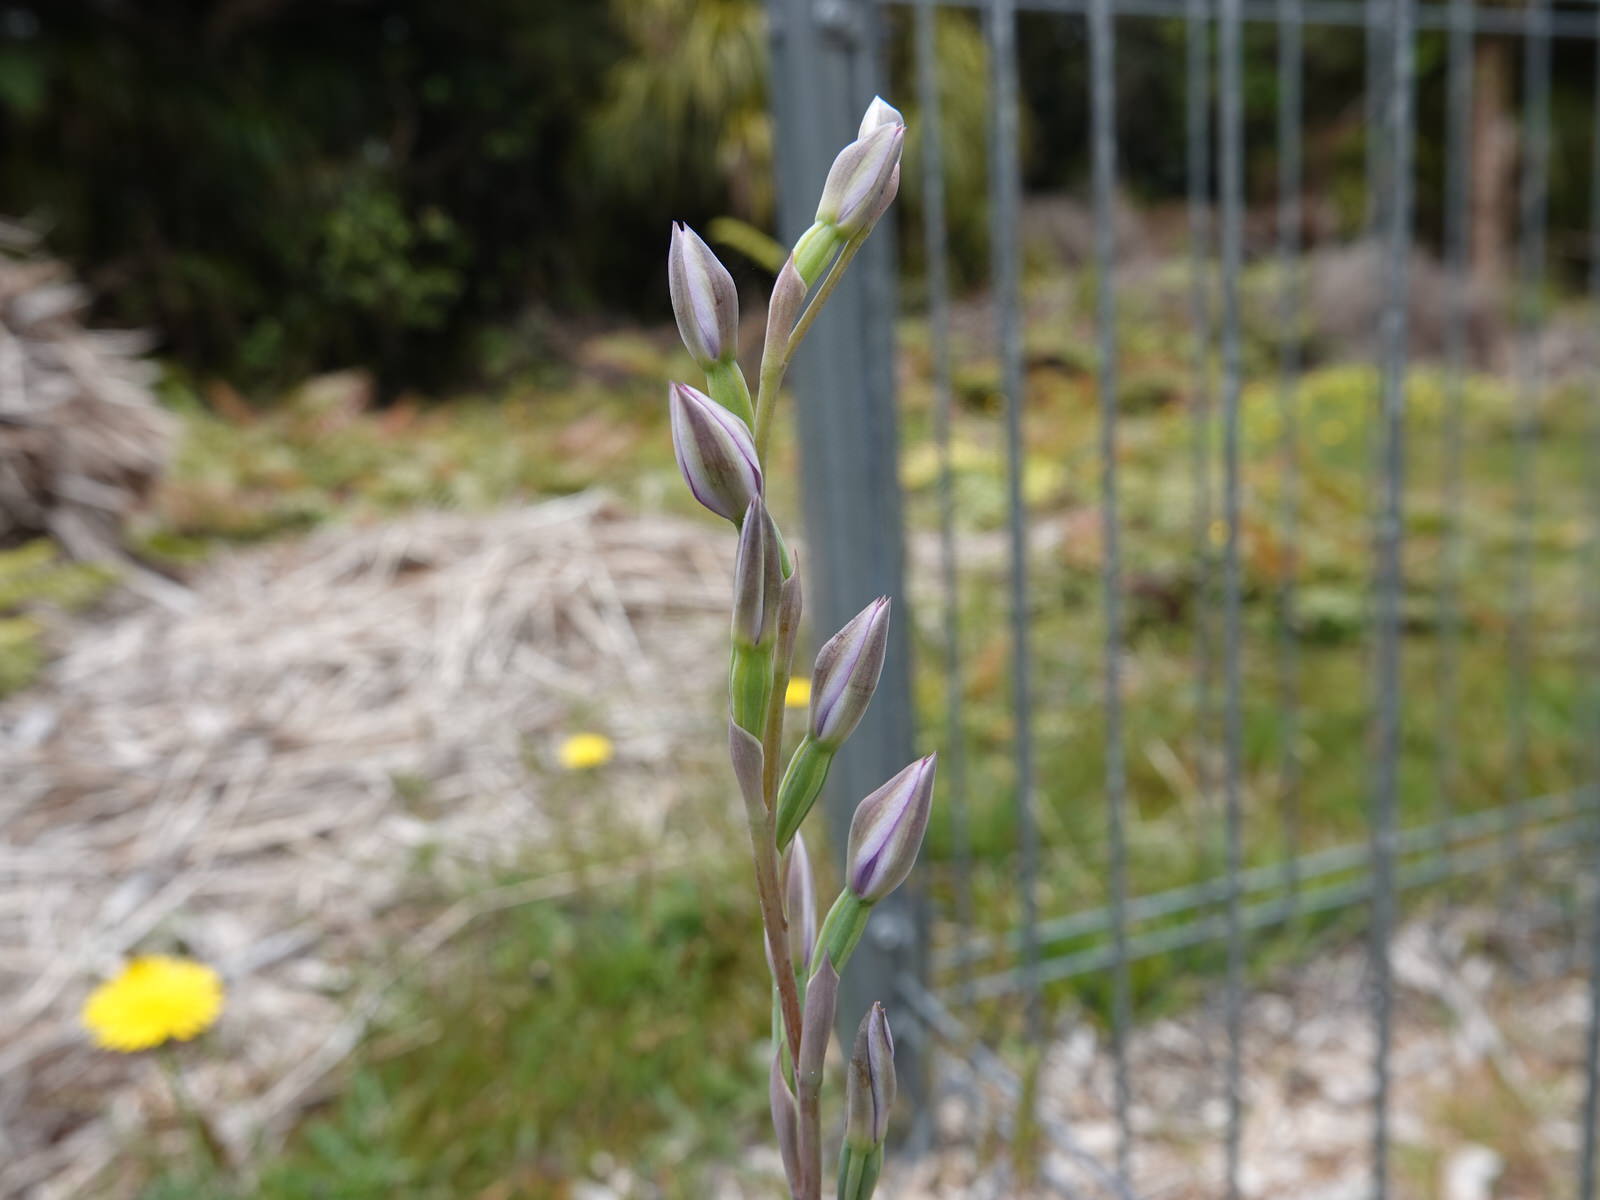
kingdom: Plantae
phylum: Tracheophyta
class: Liliopsida
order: Asparagales
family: Orchidaceae
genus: Thelymitra
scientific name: Thelymitra pauciflora
